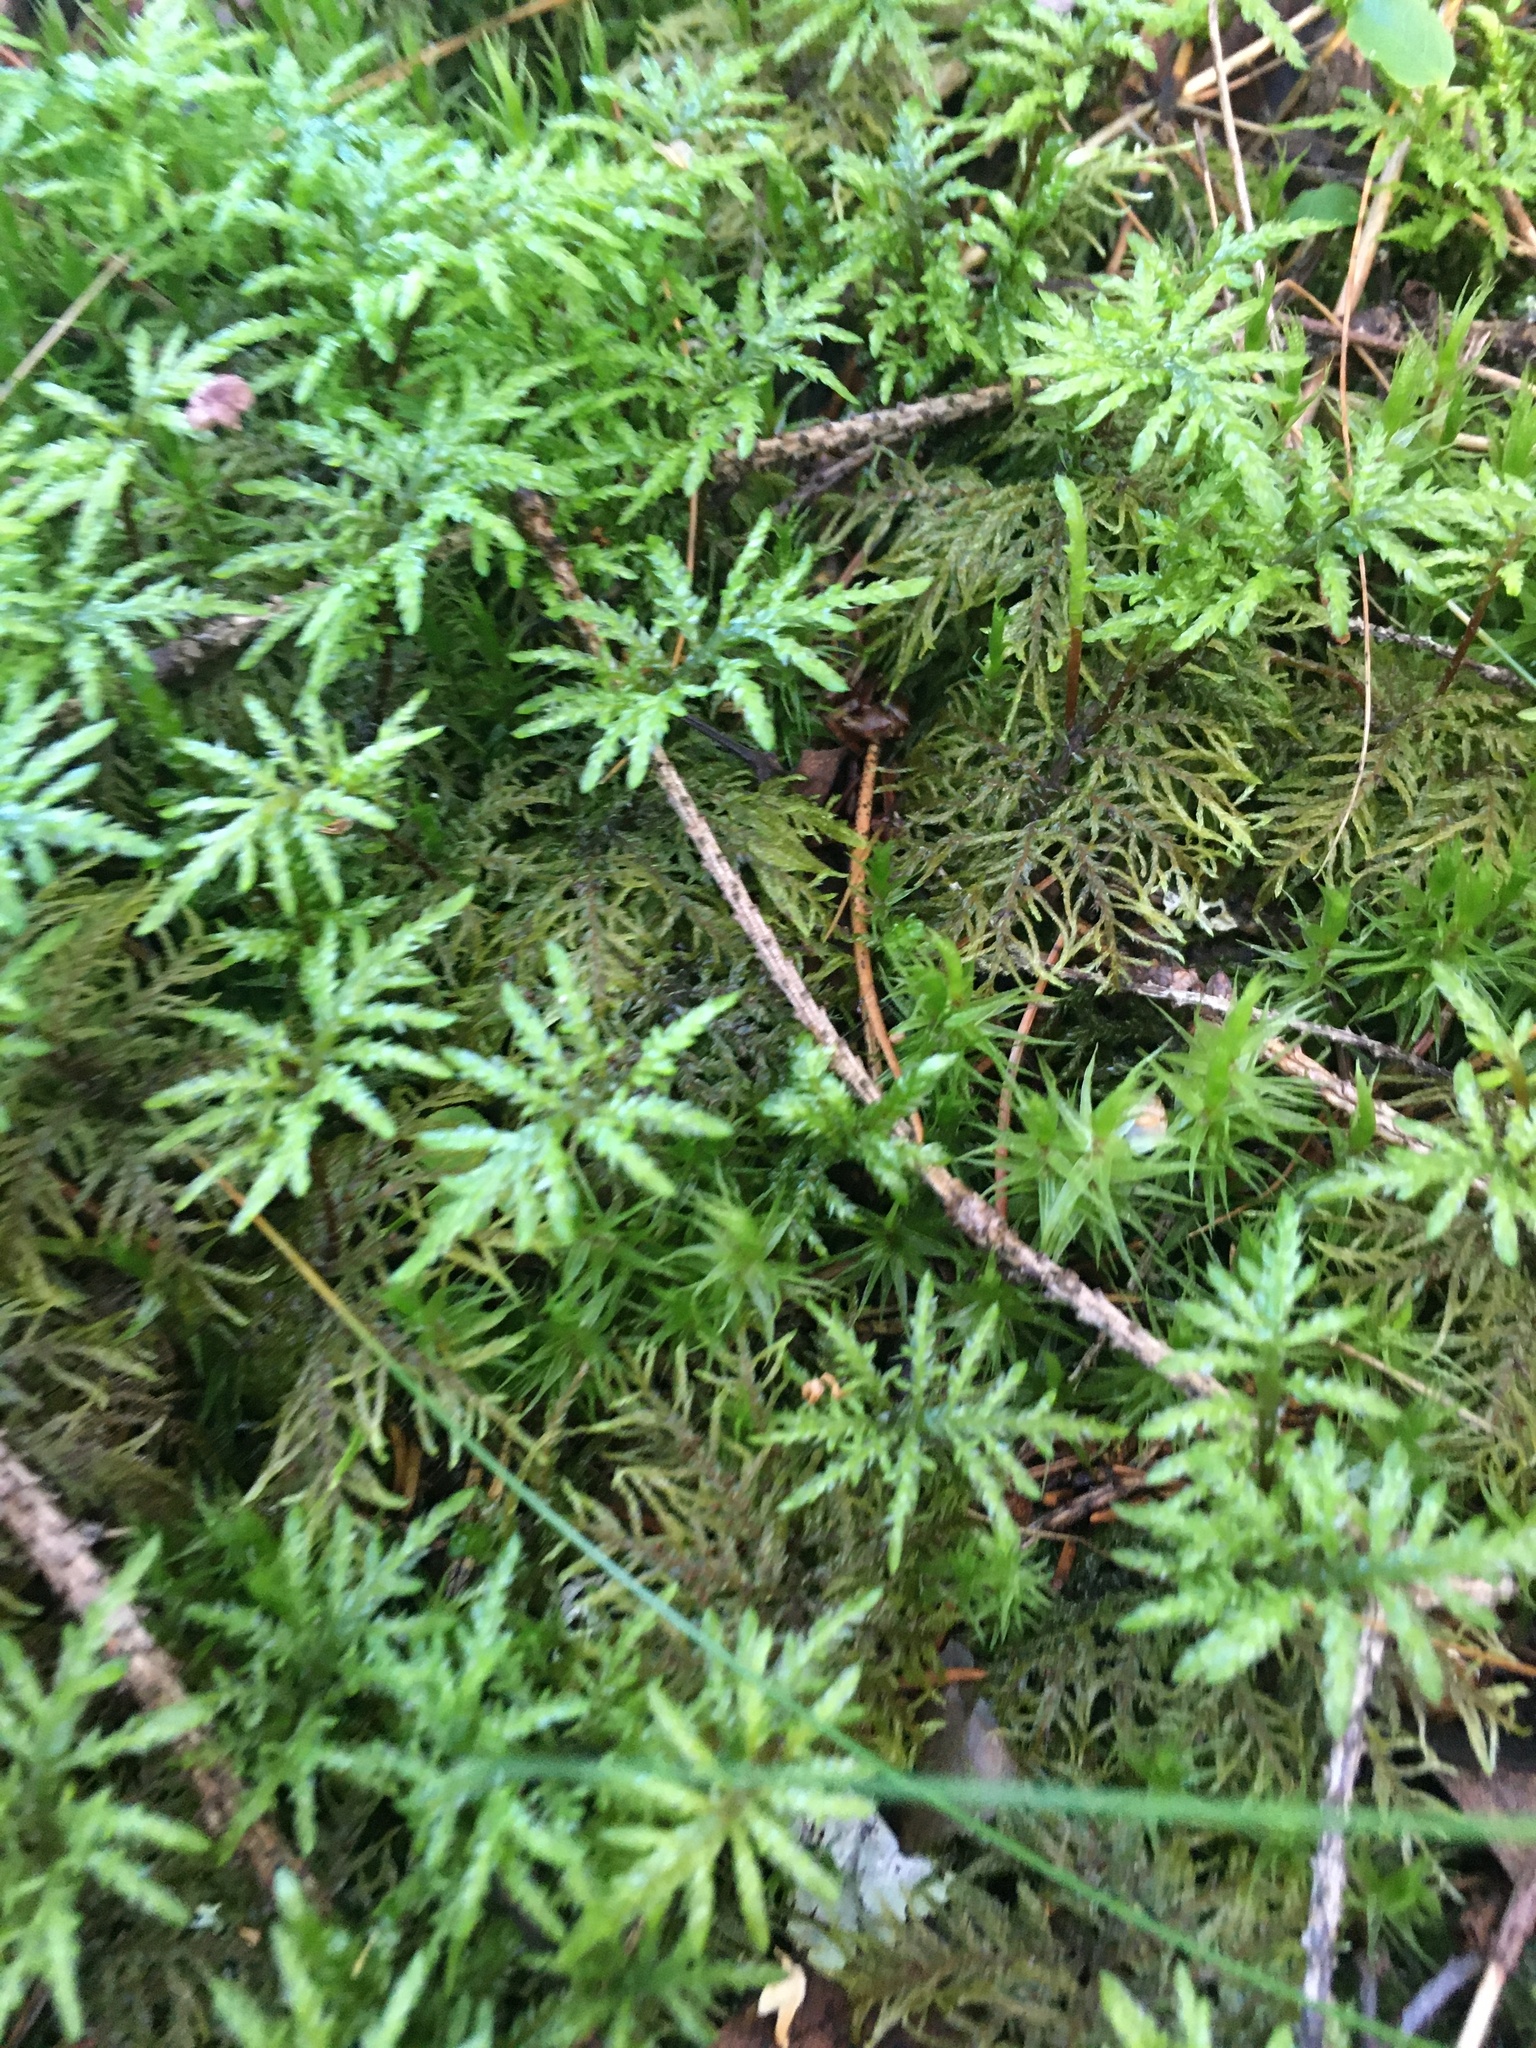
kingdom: Plantae
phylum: Bryophyta
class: Bryopsida
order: Hypnales
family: Hylocomiaceae
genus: Hylocomium
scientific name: Hylocomium splendens
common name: Stairstep moss
